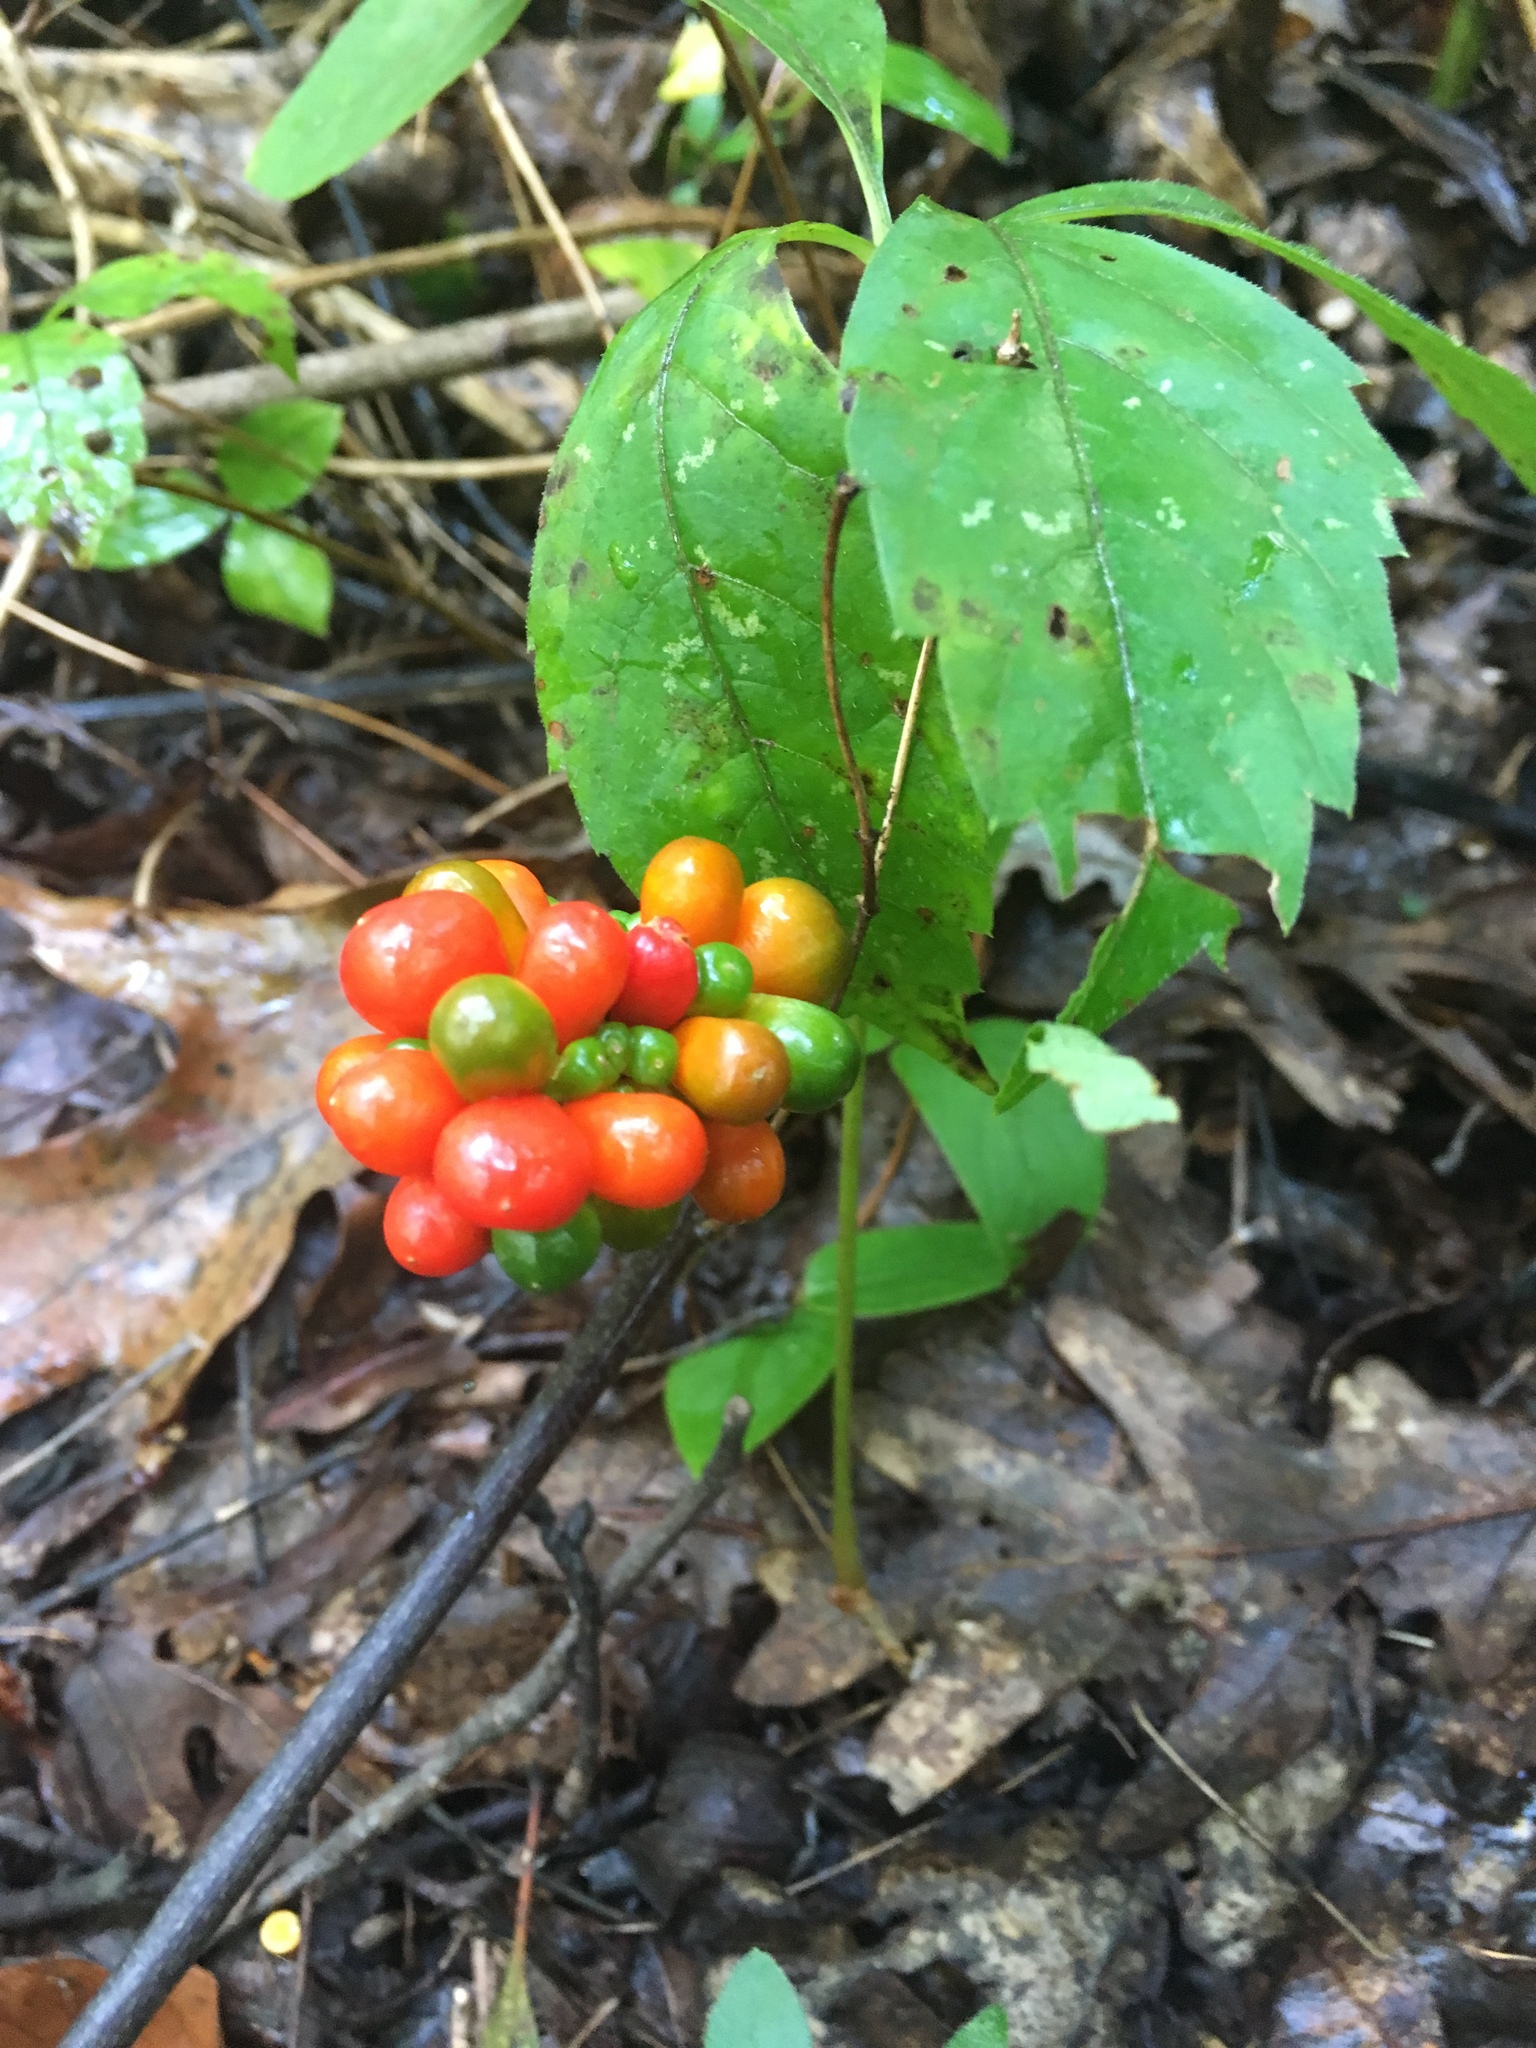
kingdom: Plantae
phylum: Tracheophyta
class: Liliopsida
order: Alismatales
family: Araceae
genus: Arisaema
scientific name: Arisaema triphyllum
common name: Jack-in-the-pulpit
